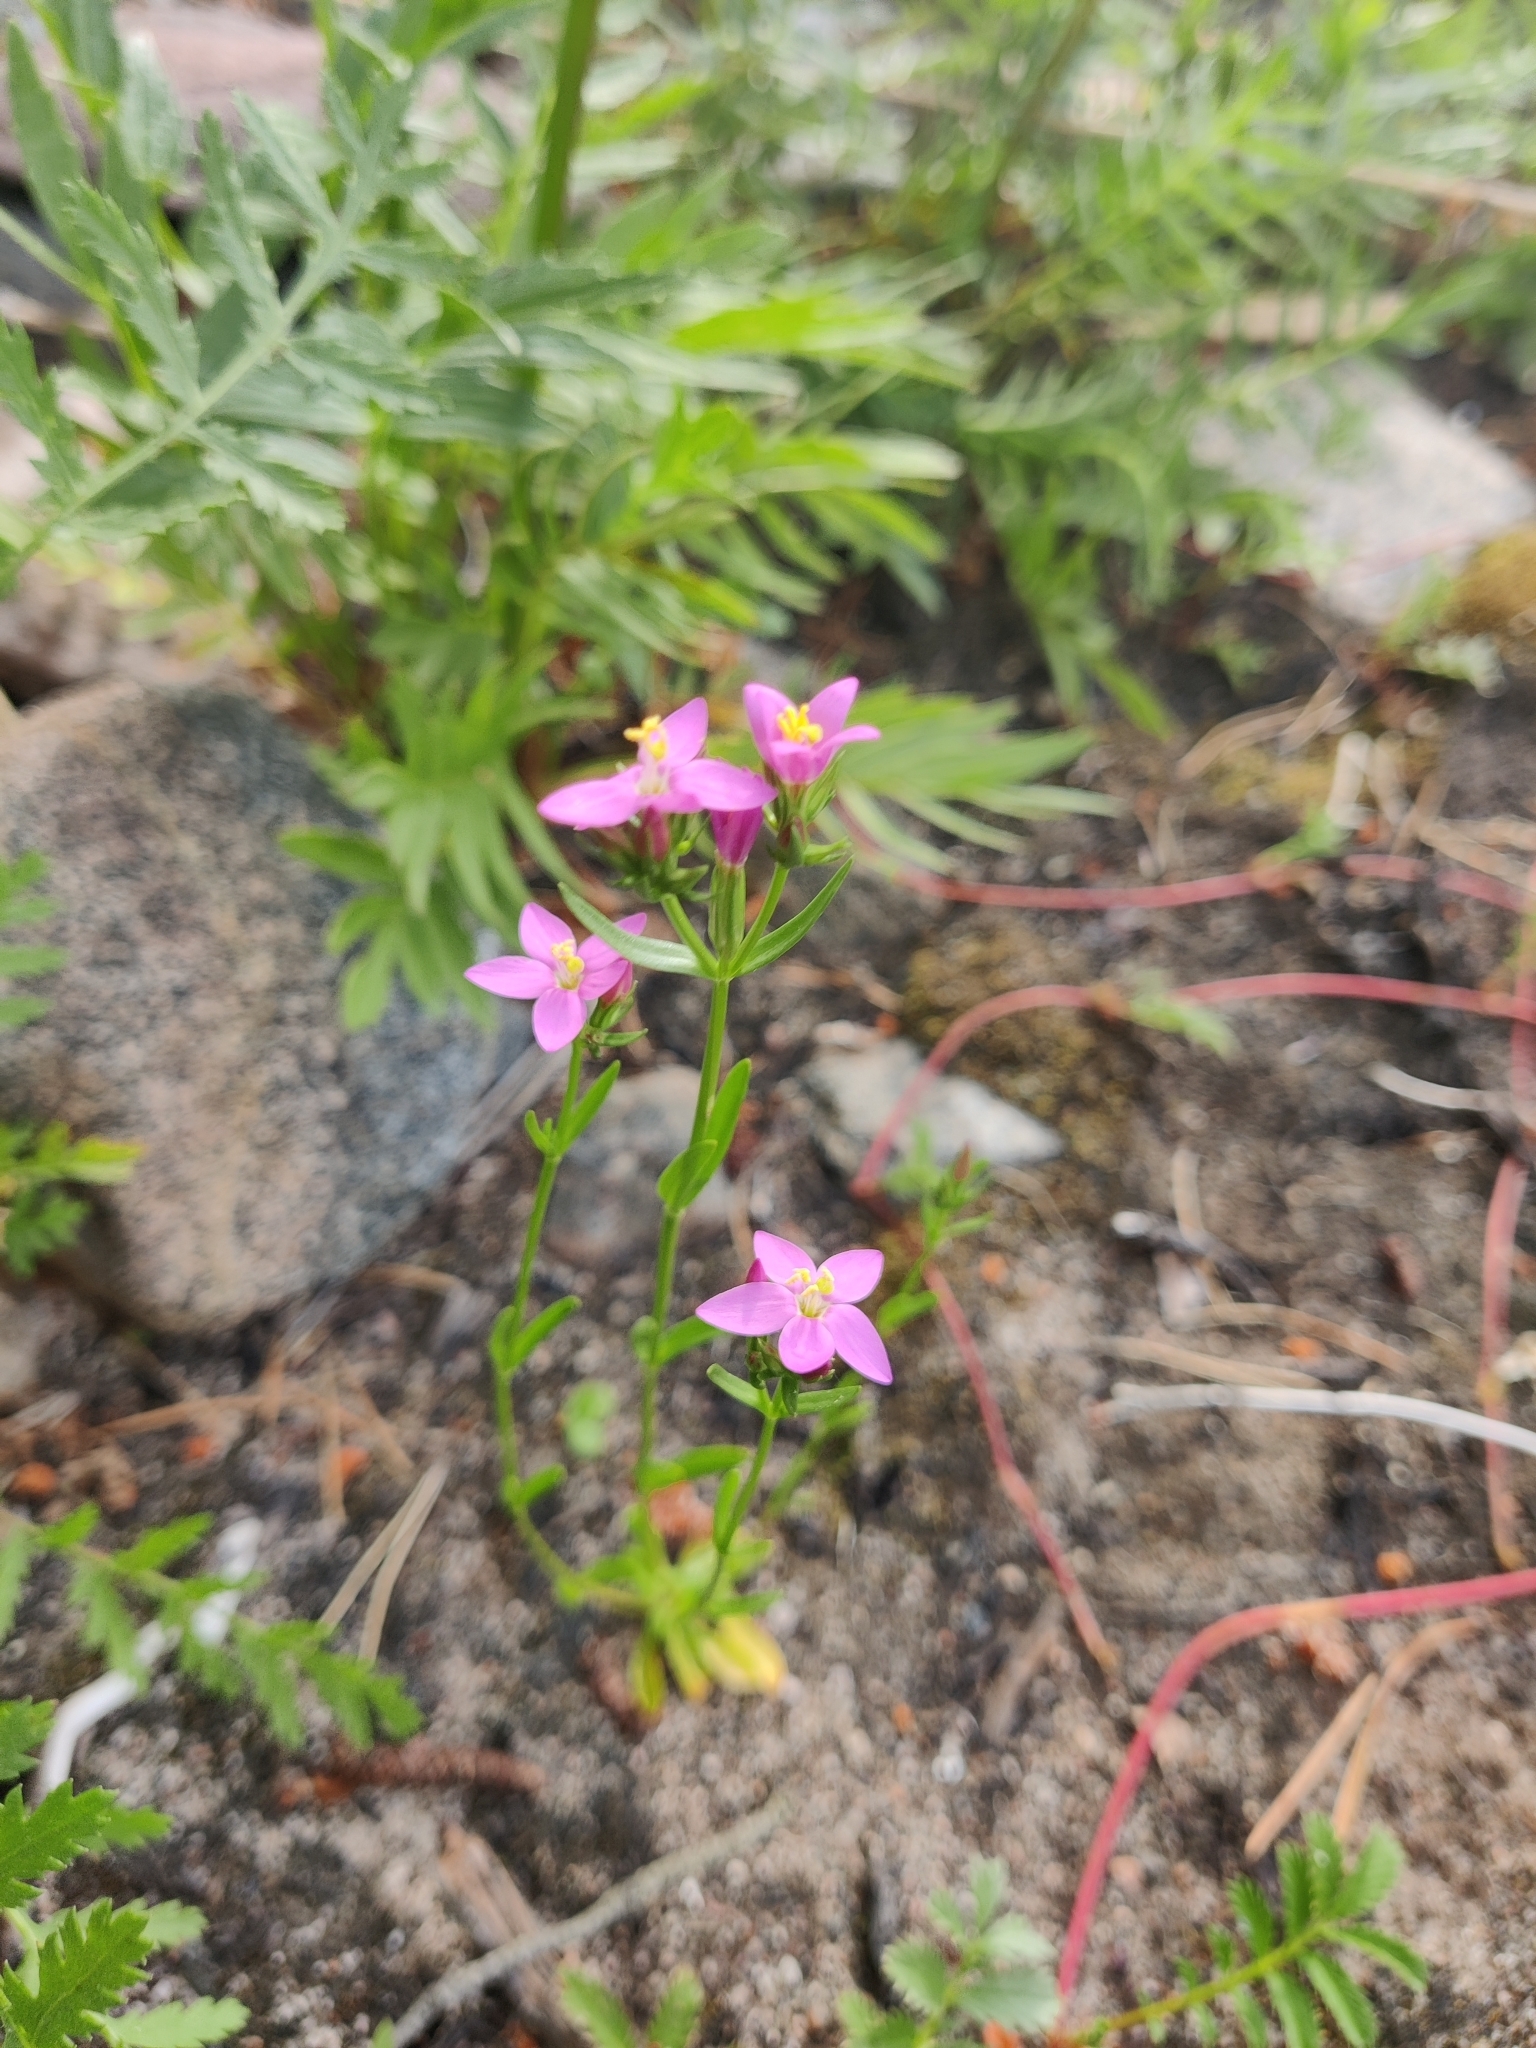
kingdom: Plantae
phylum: Tracheophyta
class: Magnoliopsida
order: Gentianales
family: Gentianaceae
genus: Centaurium
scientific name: Centaurium littorale
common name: Seaside centaury
